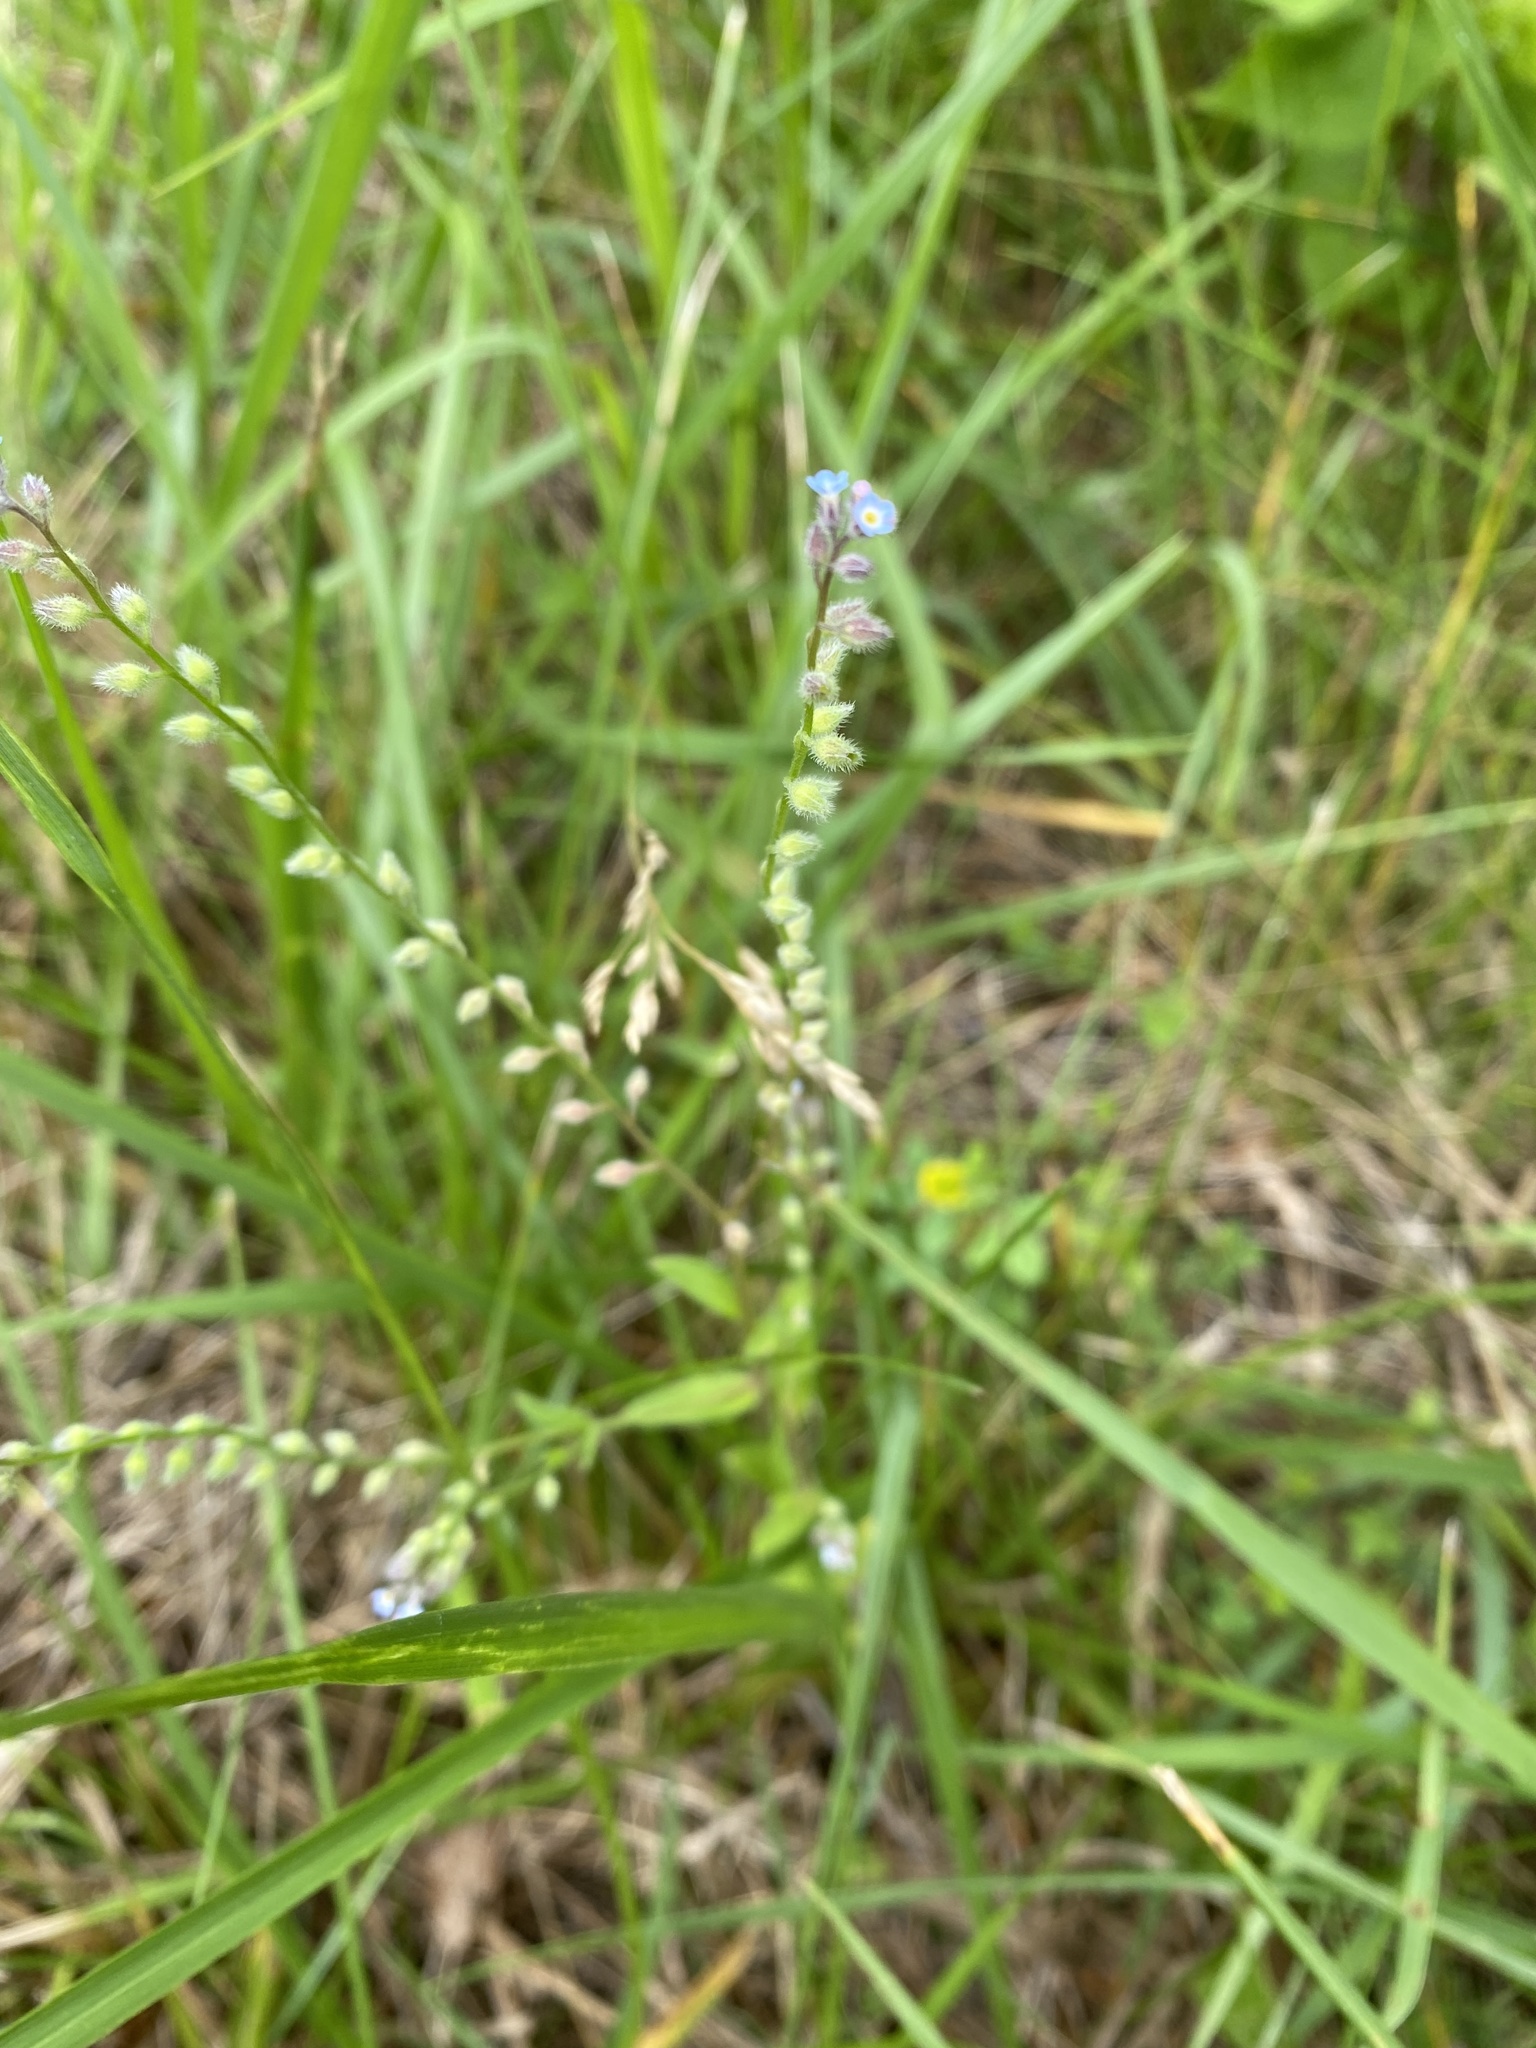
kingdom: Plantae
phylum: Tracheophyta
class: Magnoliopsida
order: Boraginales
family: Boraginaceae
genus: Myosotis
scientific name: Myosotis arvensis
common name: Field forget-me-not
